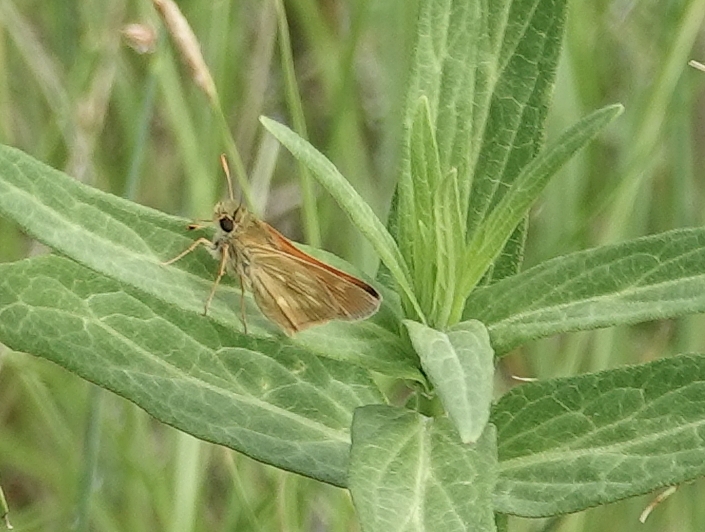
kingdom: Animalia
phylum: Arthropoda
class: Insecta
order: Lepidoptera
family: Hesperiidae
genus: Polites
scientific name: Polites mystic
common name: Long dash
